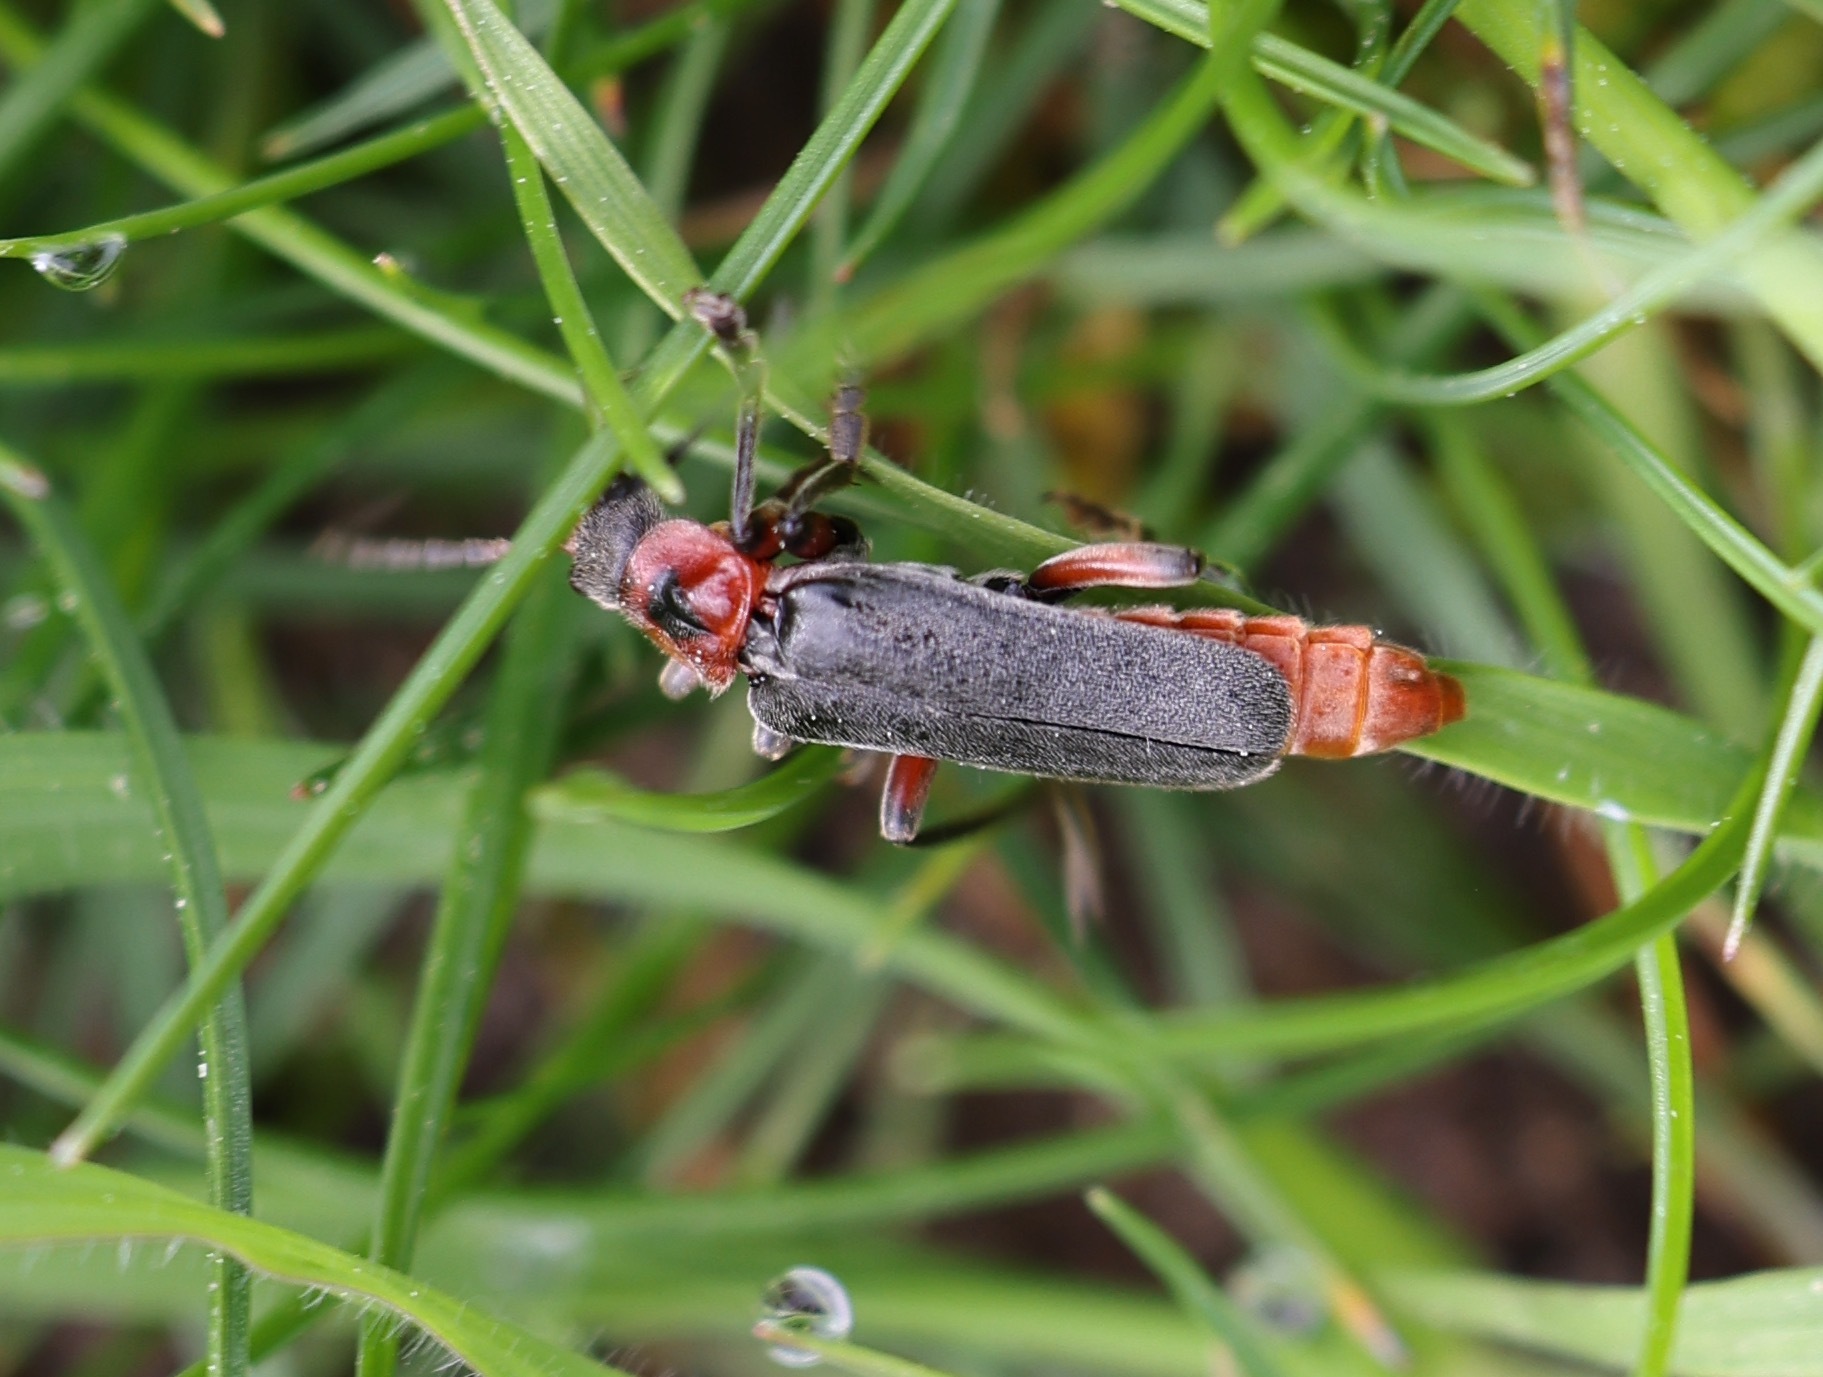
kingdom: Animalia
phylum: Arthropoda
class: Insecta
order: Coleoptera
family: Cantharidae
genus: Cantharis
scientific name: Cantharis rustica
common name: Soldier beetle
